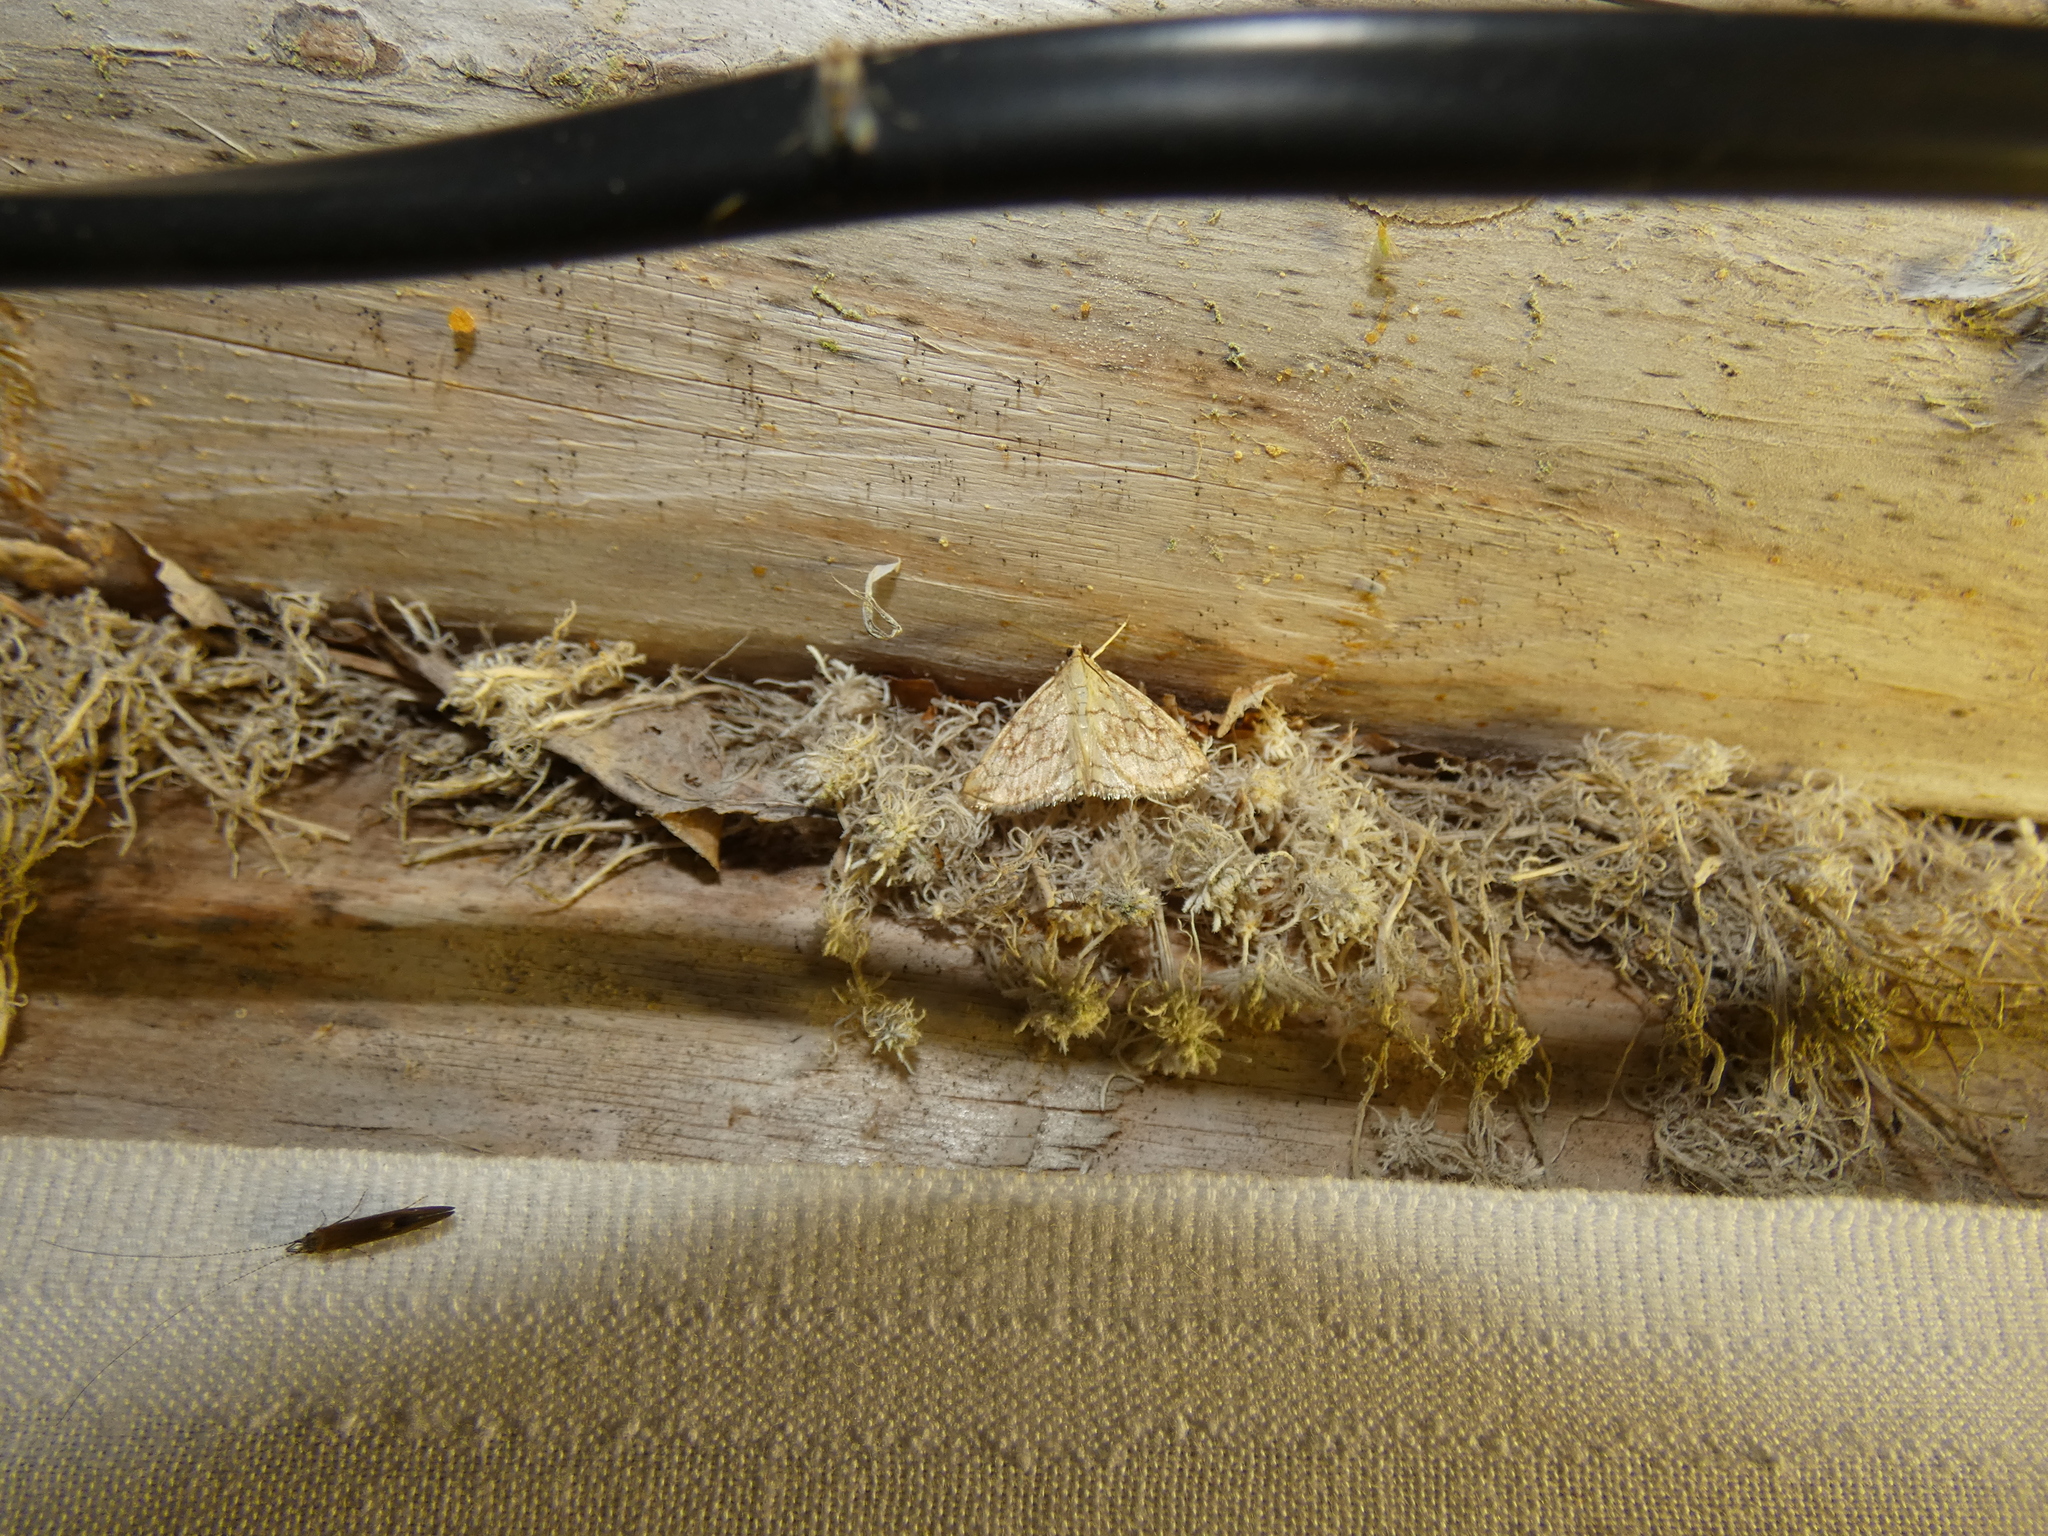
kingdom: Animalia
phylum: Arthropoda
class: Insecta
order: Lepidoptera
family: Crambidae
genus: Evergestis
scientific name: Evergestis pallidata
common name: Chequered pearl
